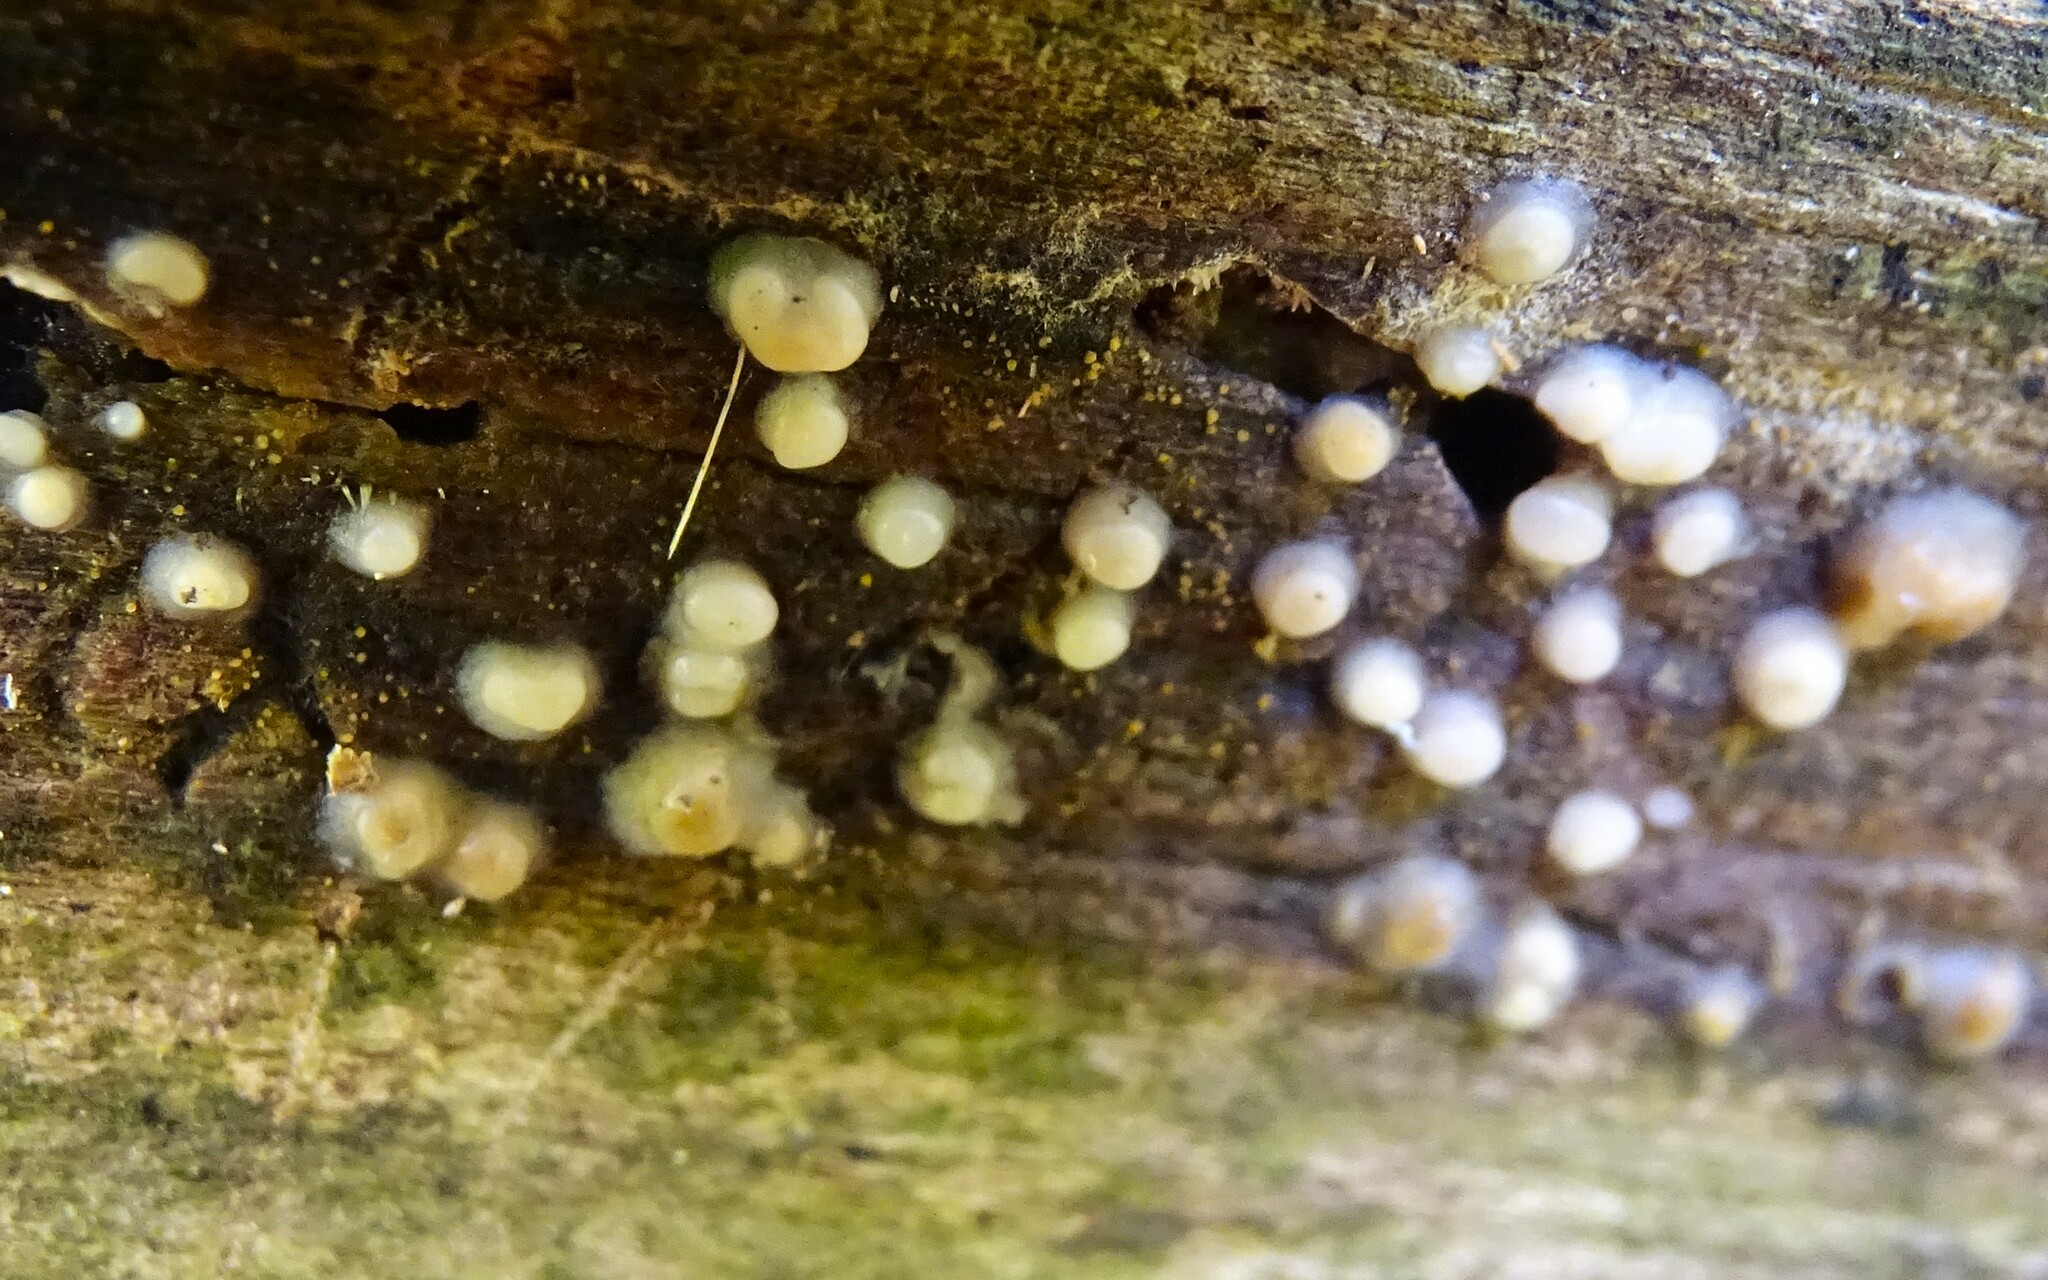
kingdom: Fungi
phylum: Basidiomycota
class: Atractiellomycetes
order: Atractiellales
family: Phleogenaceae
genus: Helicogloea
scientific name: Helicogloea compressa
